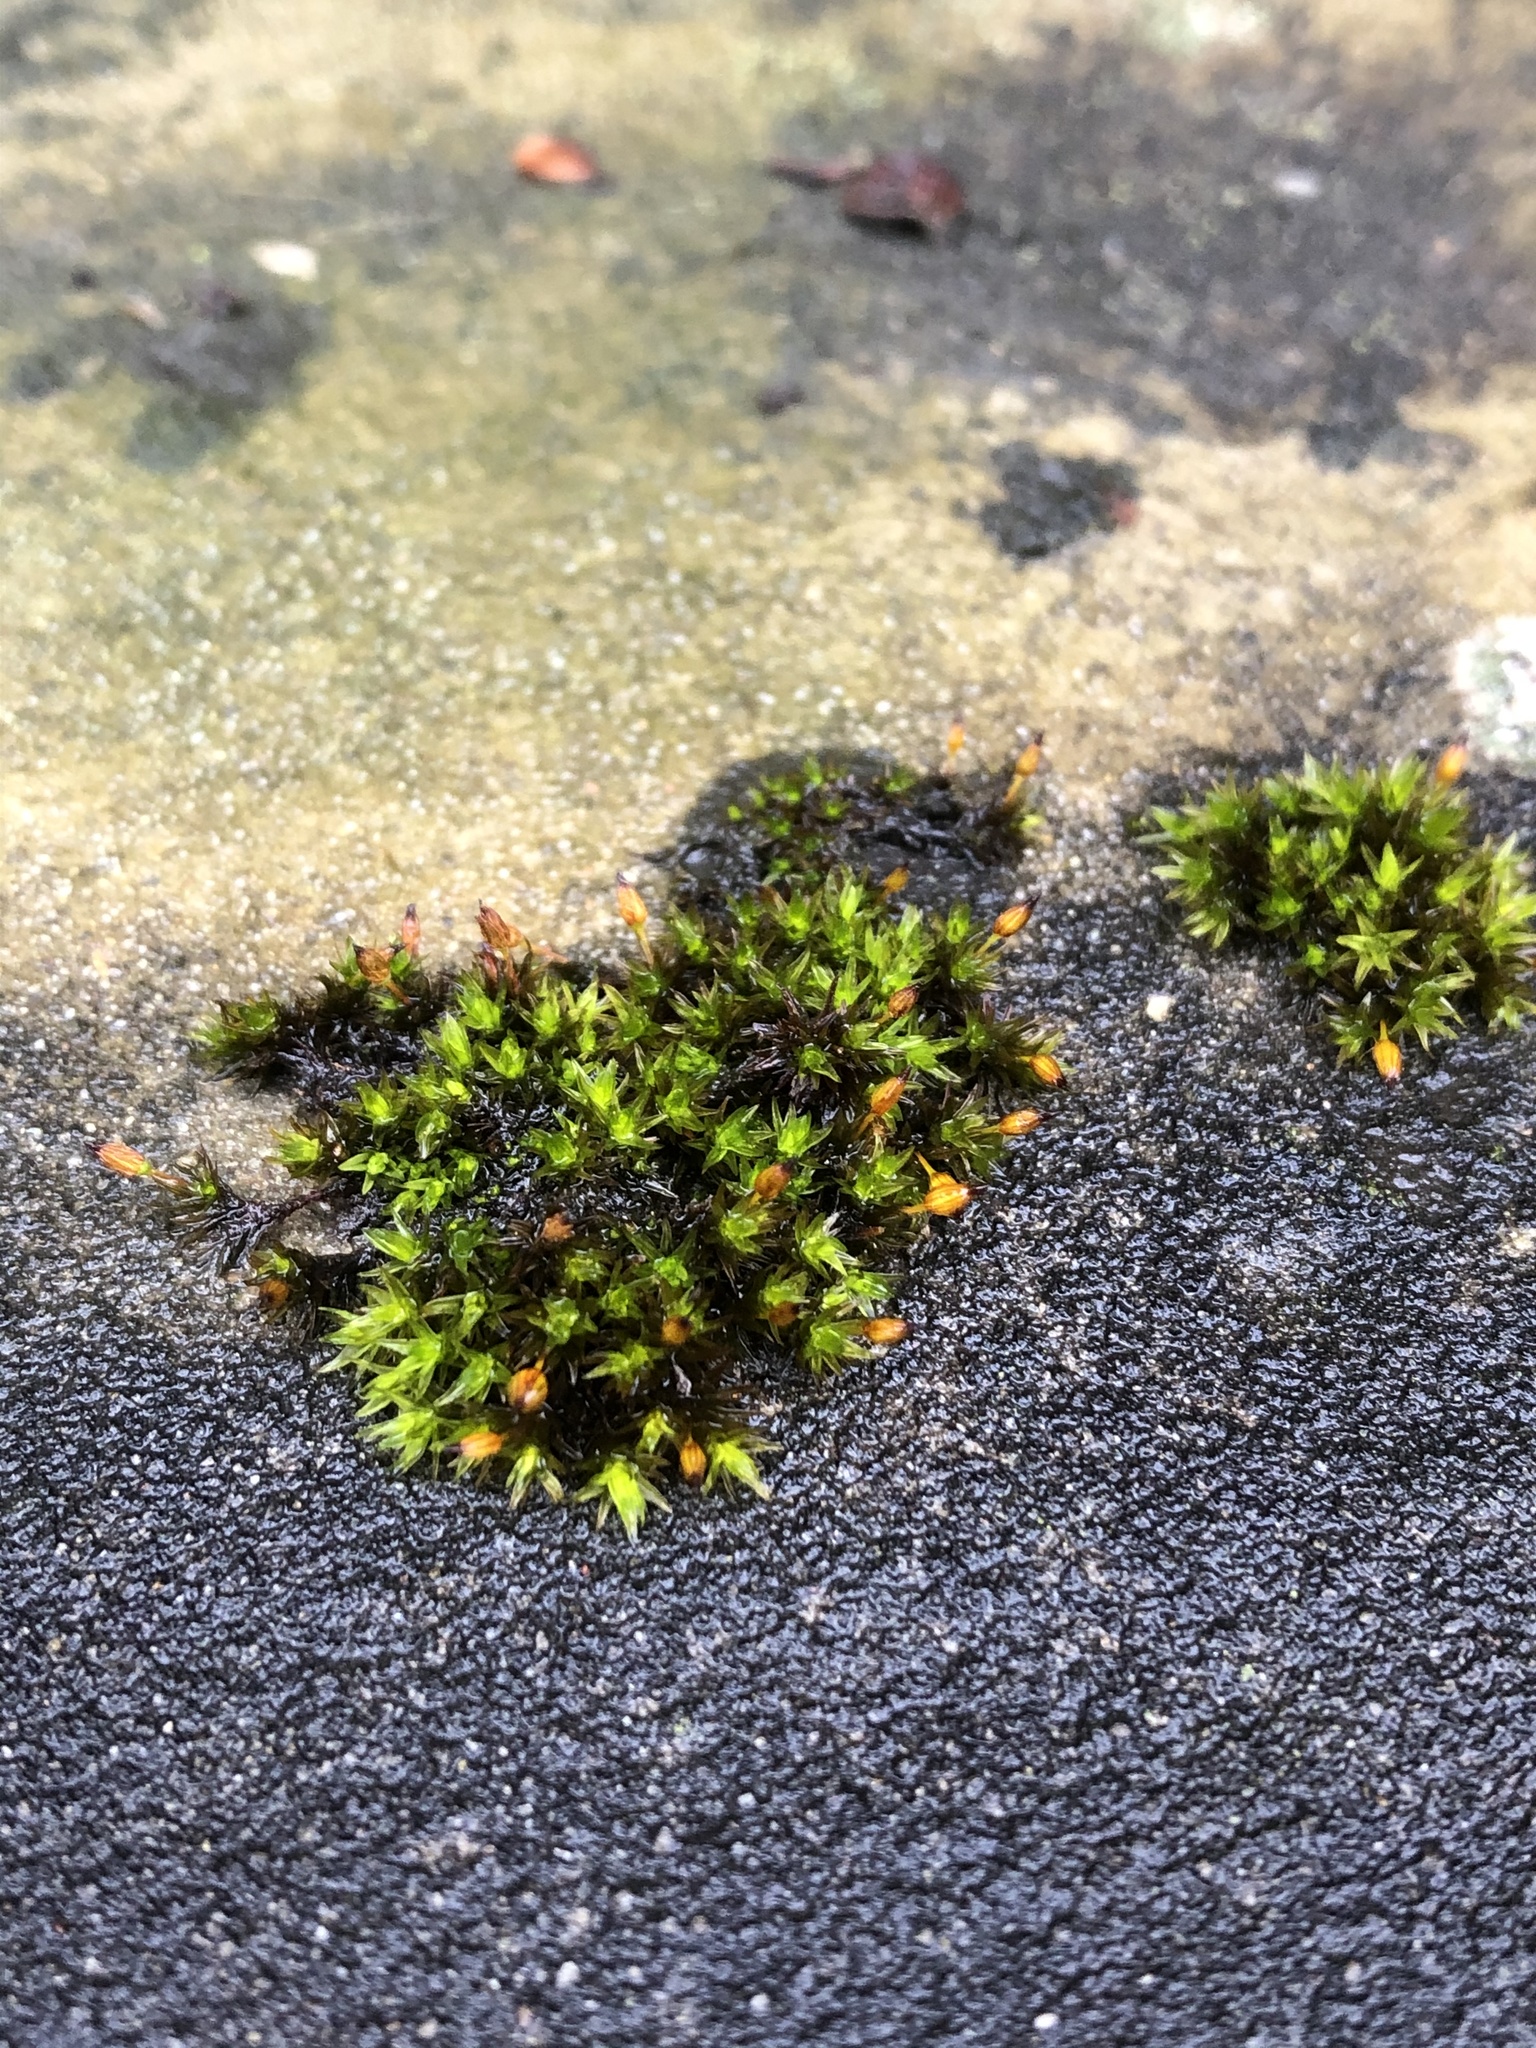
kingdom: Plantae
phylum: Bryophyta
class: Bryopsida
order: Orthotrichales
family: Orthotrichaceae
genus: Orthotrichum
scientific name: Orthotrichum anomalum
